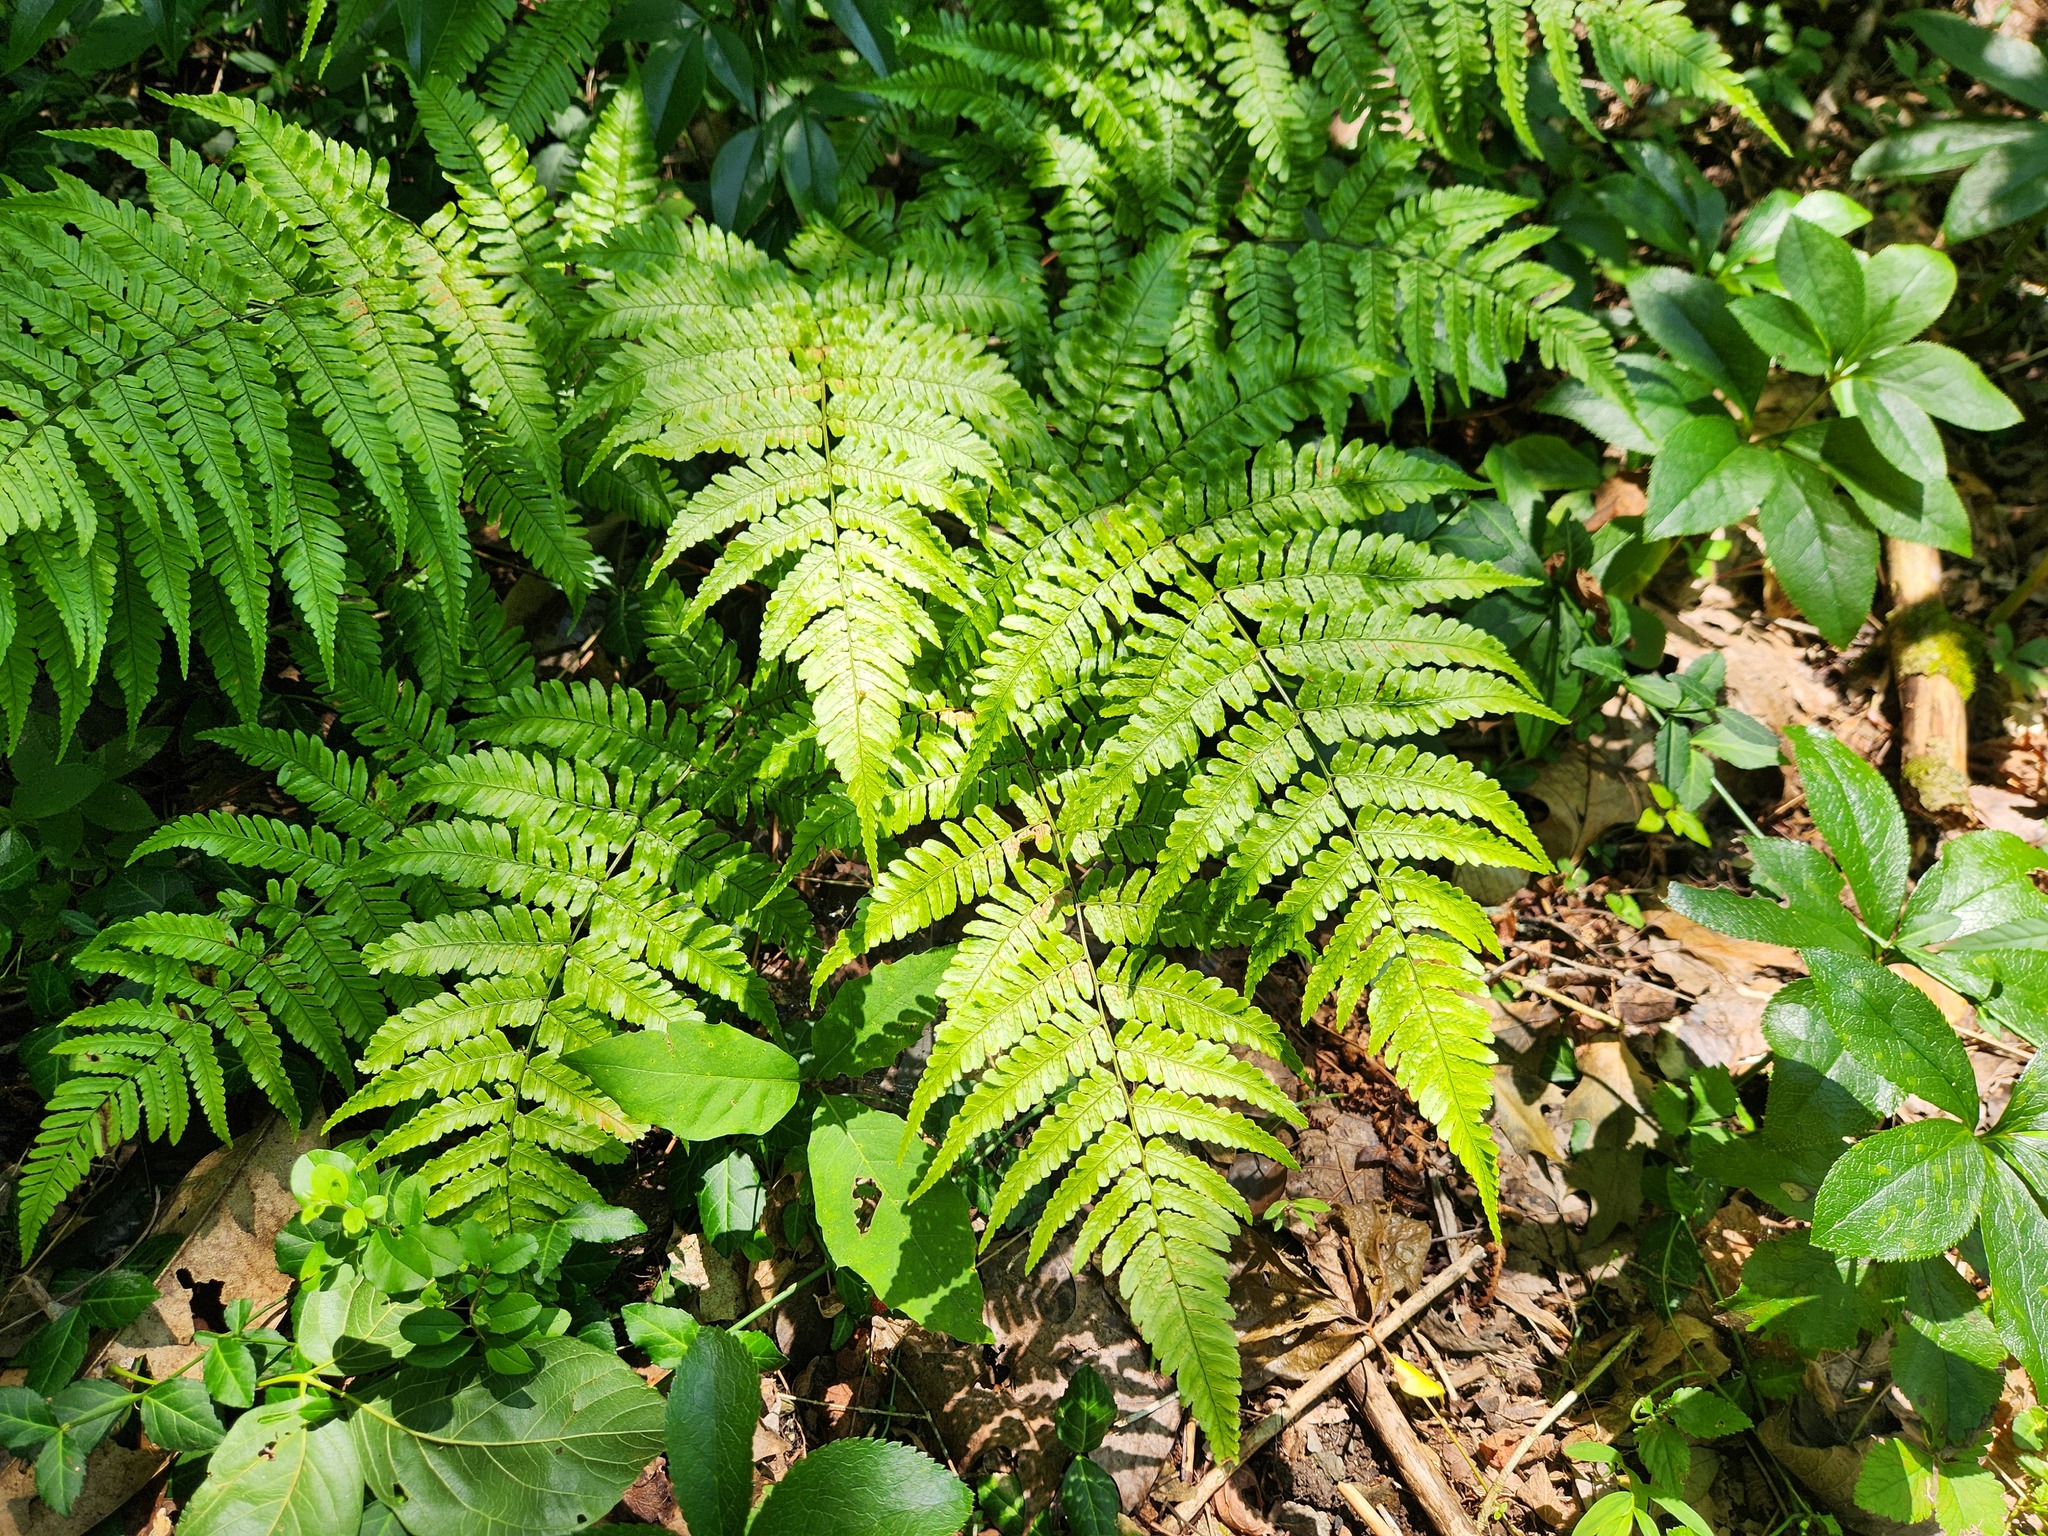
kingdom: Plantae
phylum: Tracheophyta
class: Polypodiopsida
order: Polypodiales
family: Dryopteridaceae
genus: Dryopteris
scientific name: Dryopteris erythrosora
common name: Autumn fern
